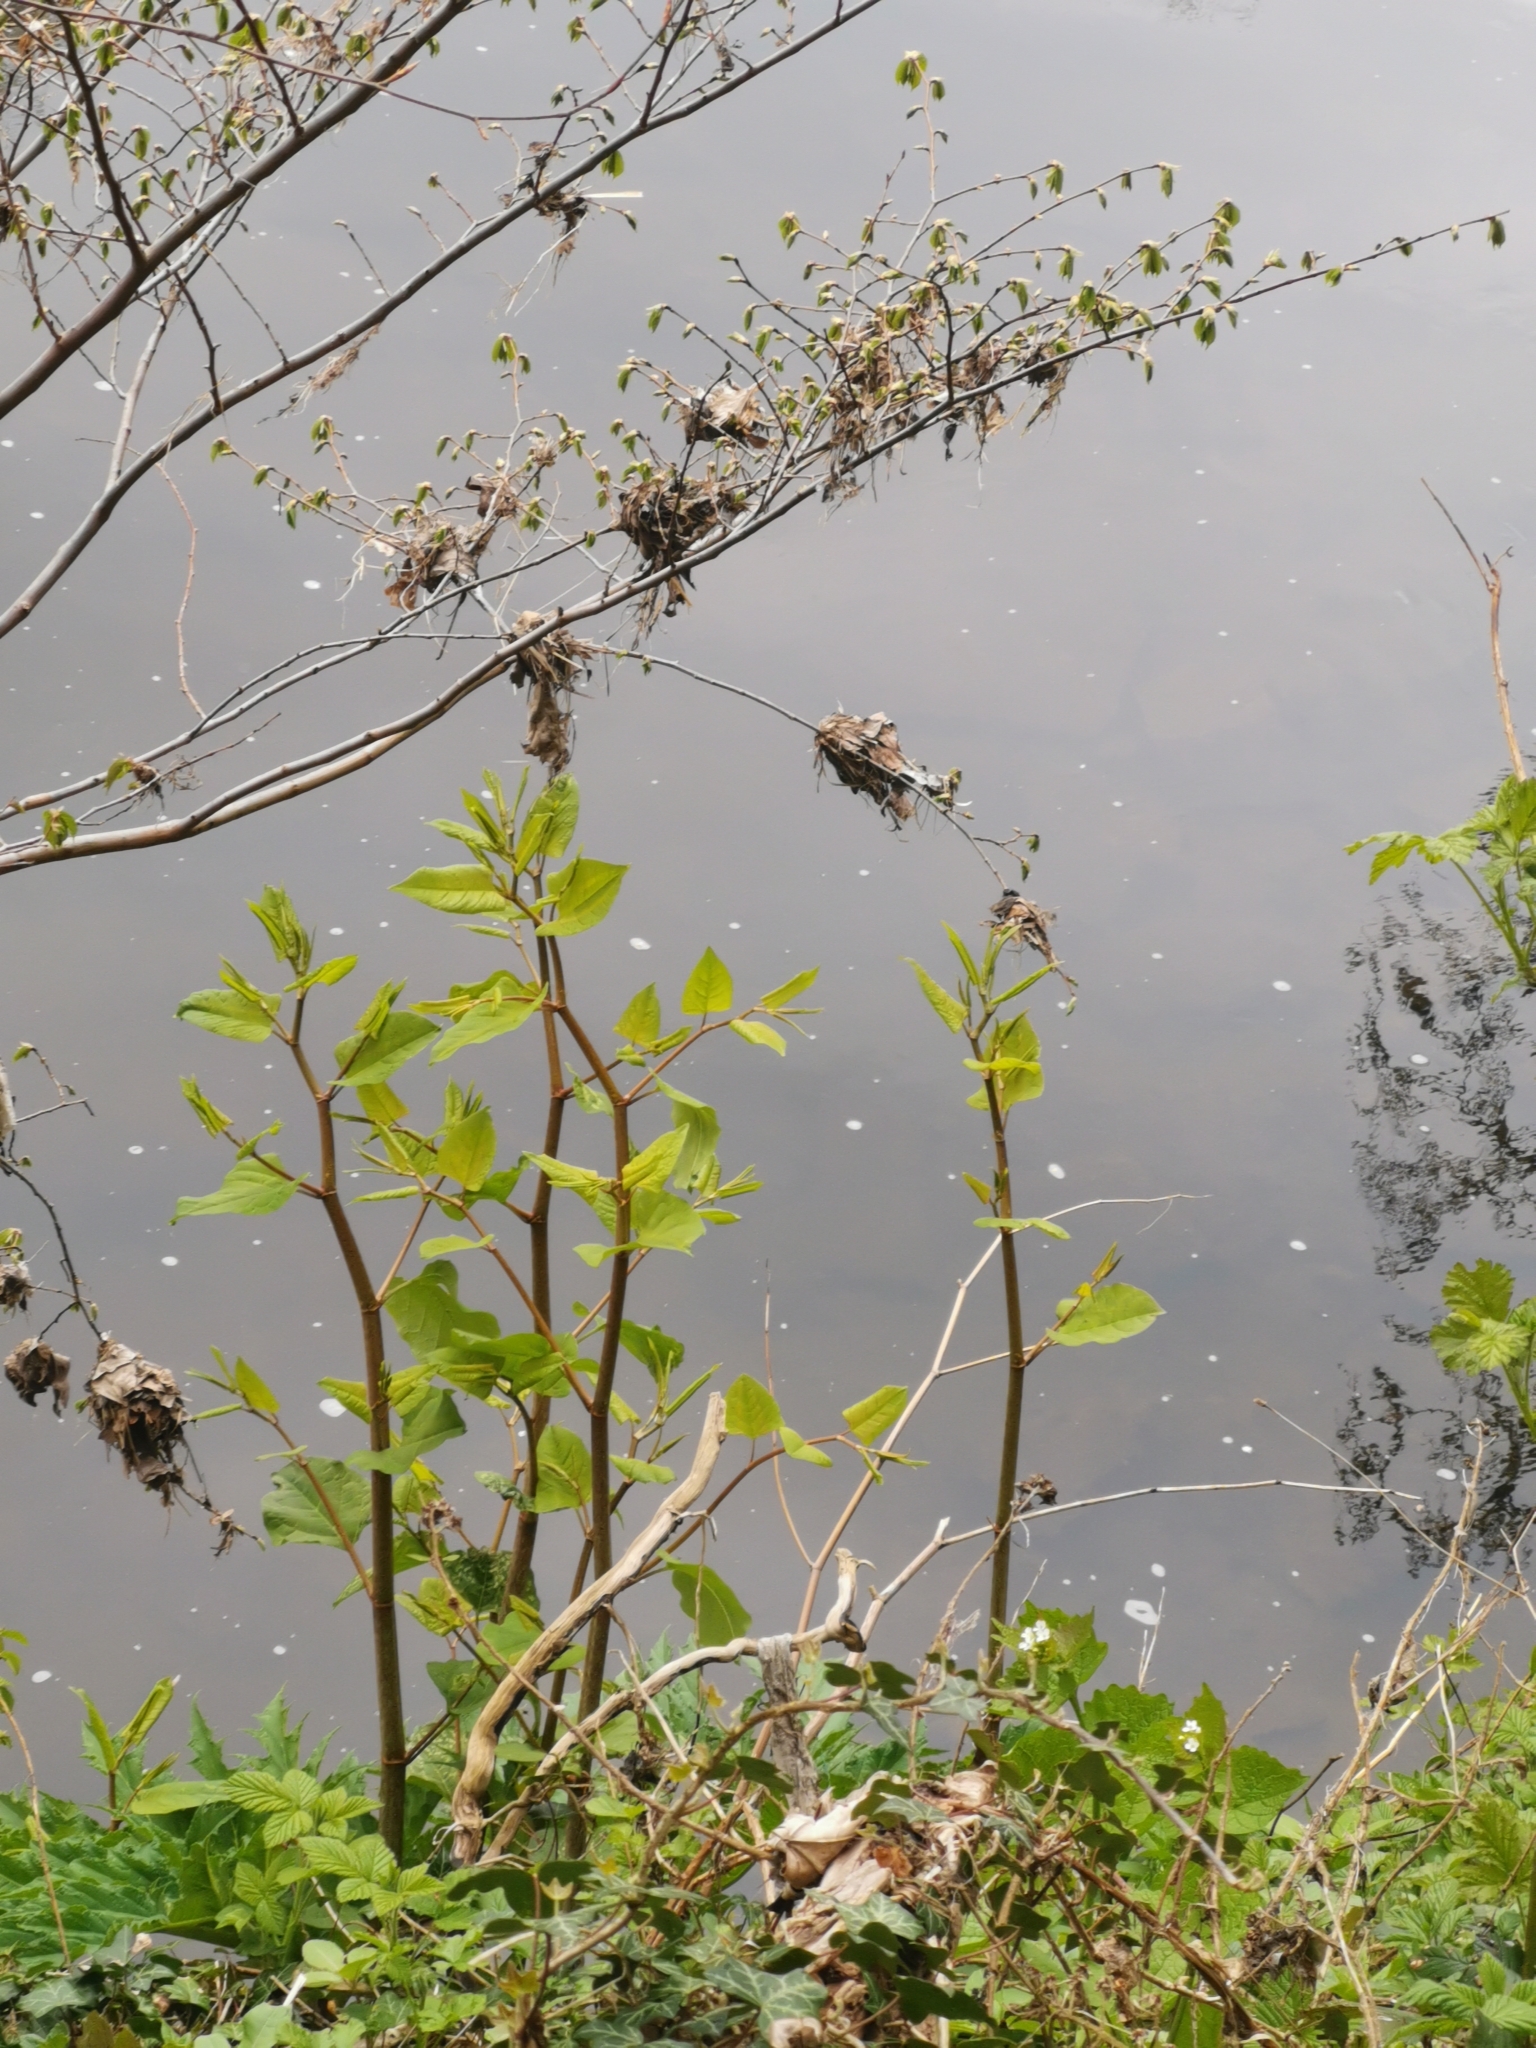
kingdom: Plantae
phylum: Tracheophyta
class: Magnoliopsida
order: Caryophyllales
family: Polygonaceae
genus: Reynoutria
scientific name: Reynoutria japonica
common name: Japanese knotweed
